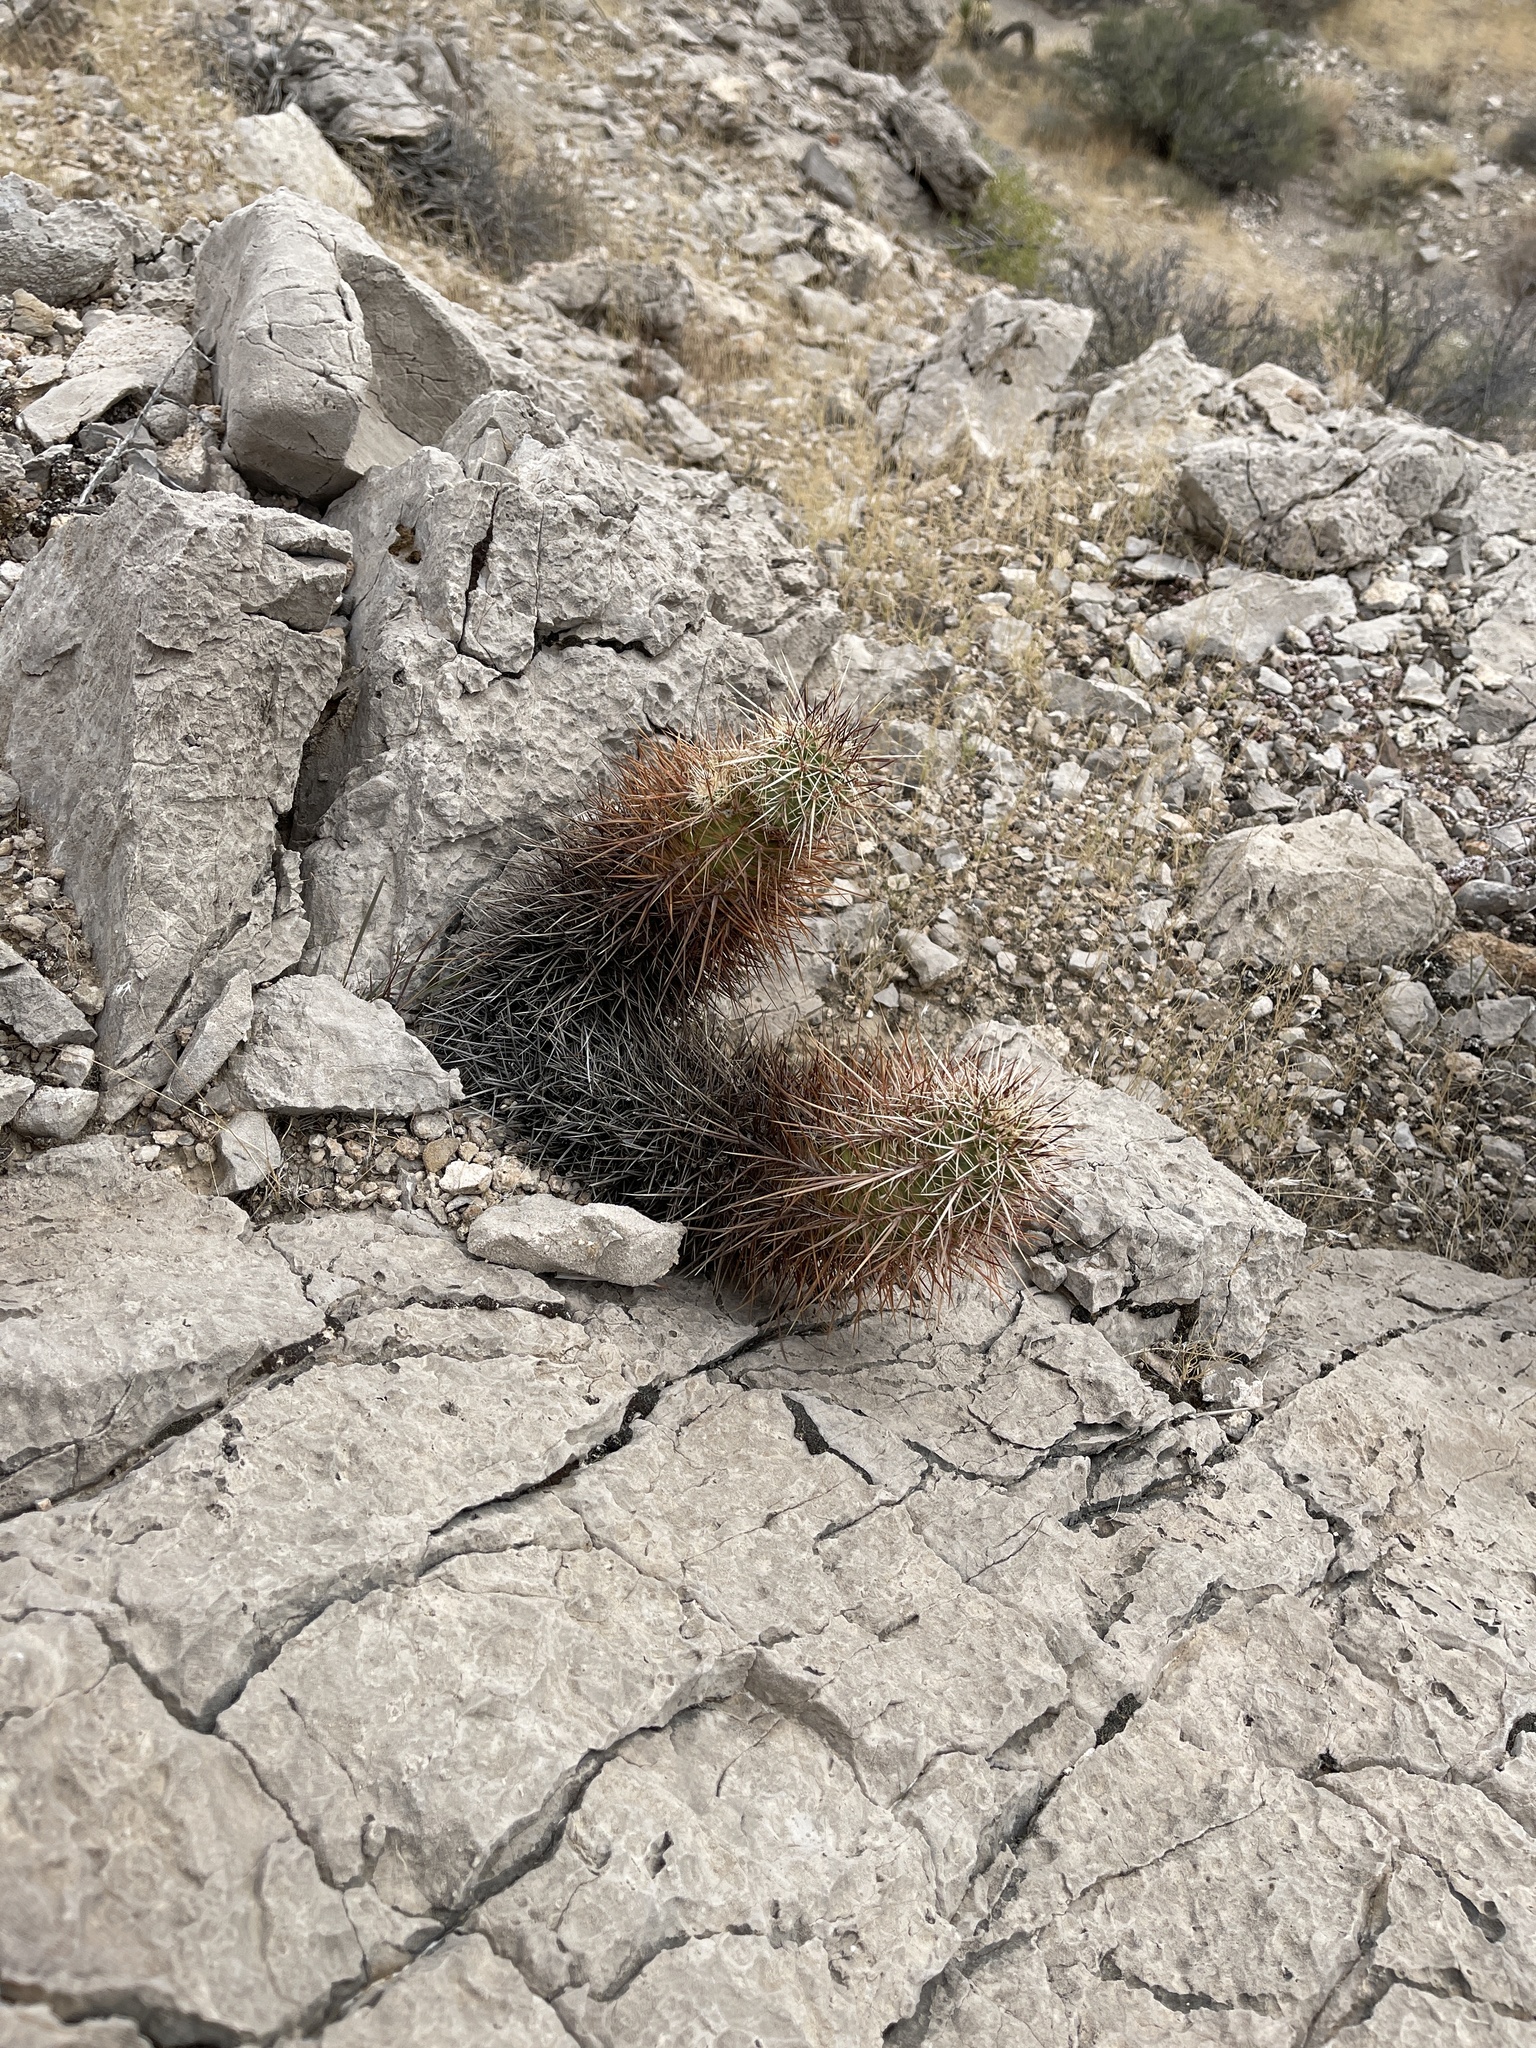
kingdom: Plantae
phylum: Tracheophyta
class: Magnoliopsida
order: Caryophyllales
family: Cactaceae
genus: Echinocereus
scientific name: Echinocereus engelmannii
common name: Engelmann's hedgehog cactus
